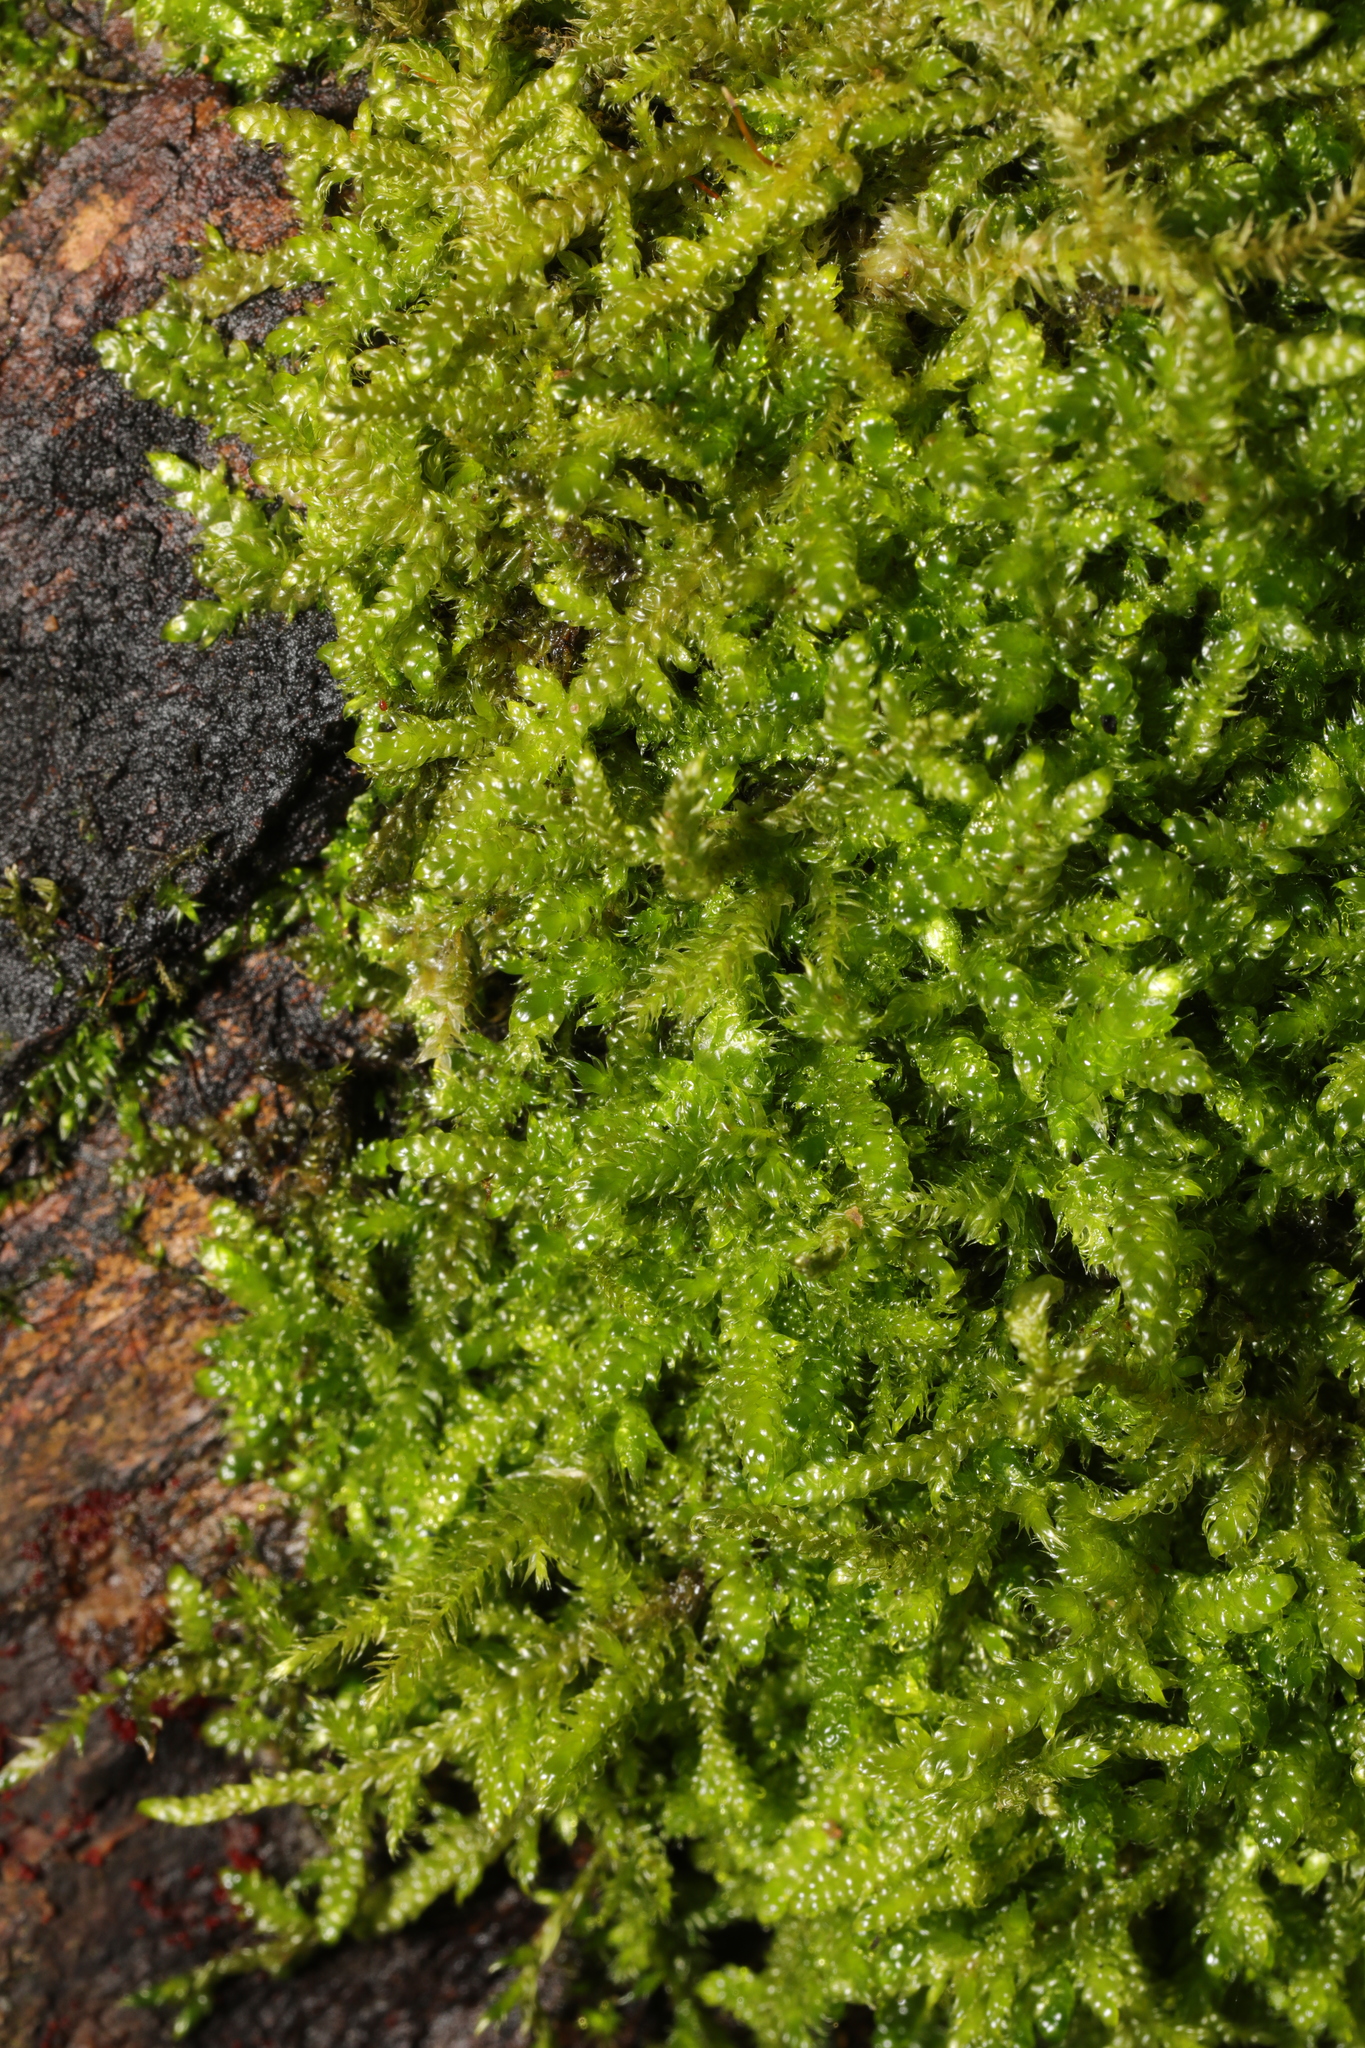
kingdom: Plantae
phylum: Bryophyta
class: Bryopsida
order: Hypnales
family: Hypnaceae
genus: Hypnum
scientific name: Hypnum cupressiforme
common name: Cypress-leaved plait-moss
